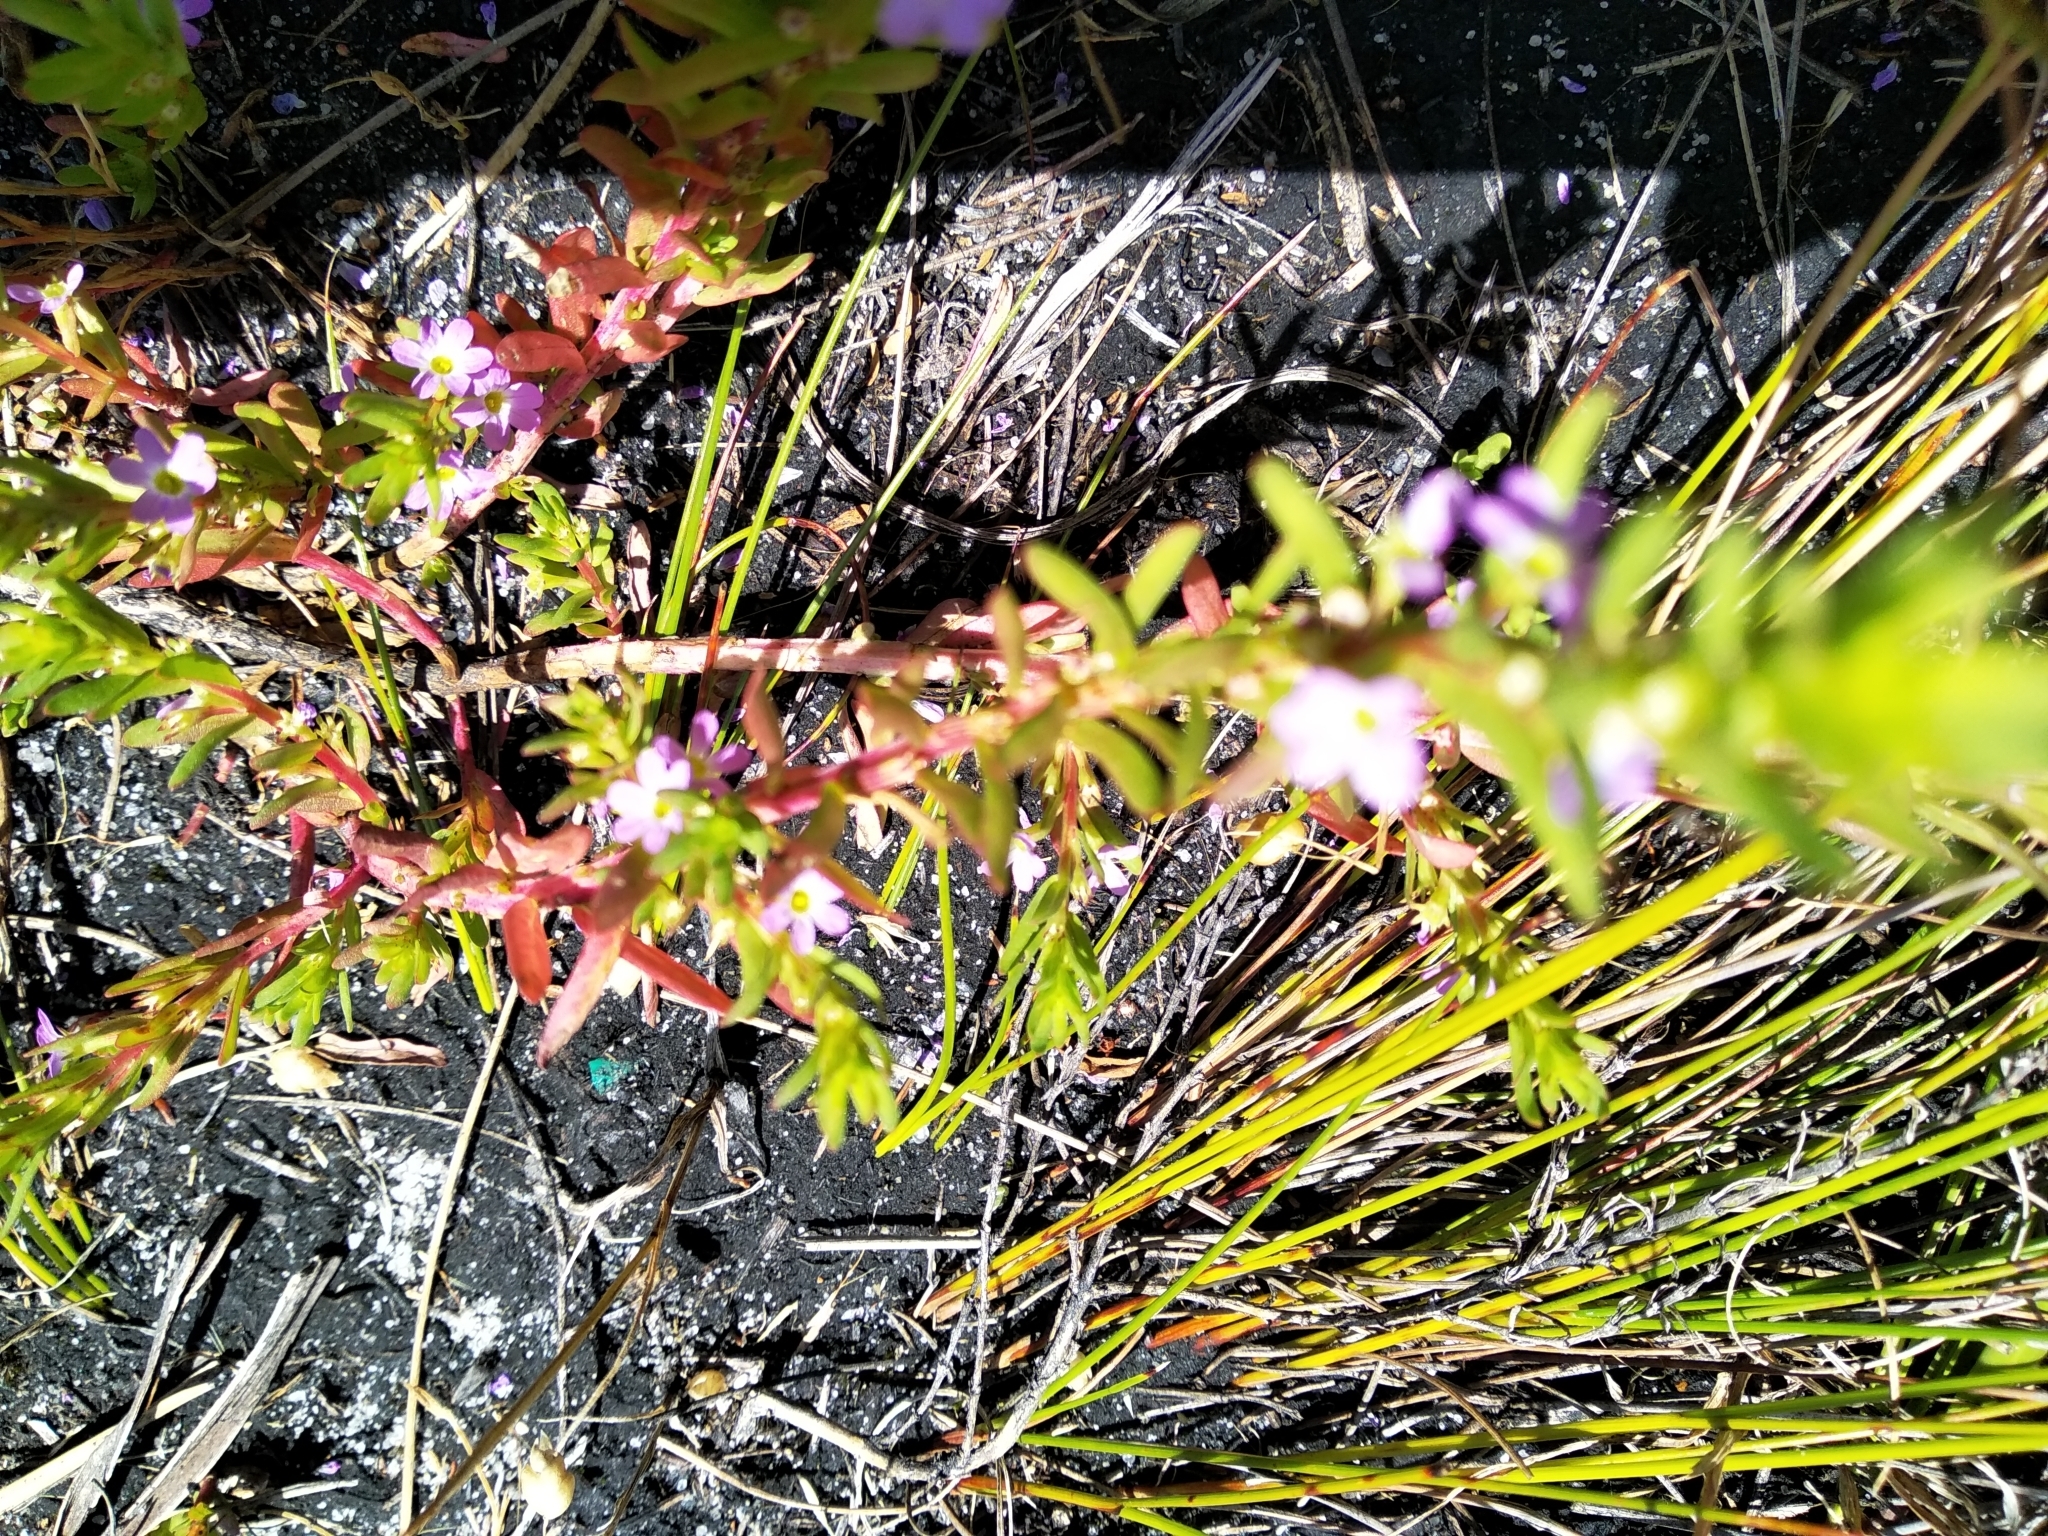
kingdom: Plantae
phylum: Tracheophyta
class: Magnoliopsida
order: Myrtales
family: Lythraceae
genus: Lythrum
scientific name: Lythrum hyssopifolia
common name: Grass-poly
